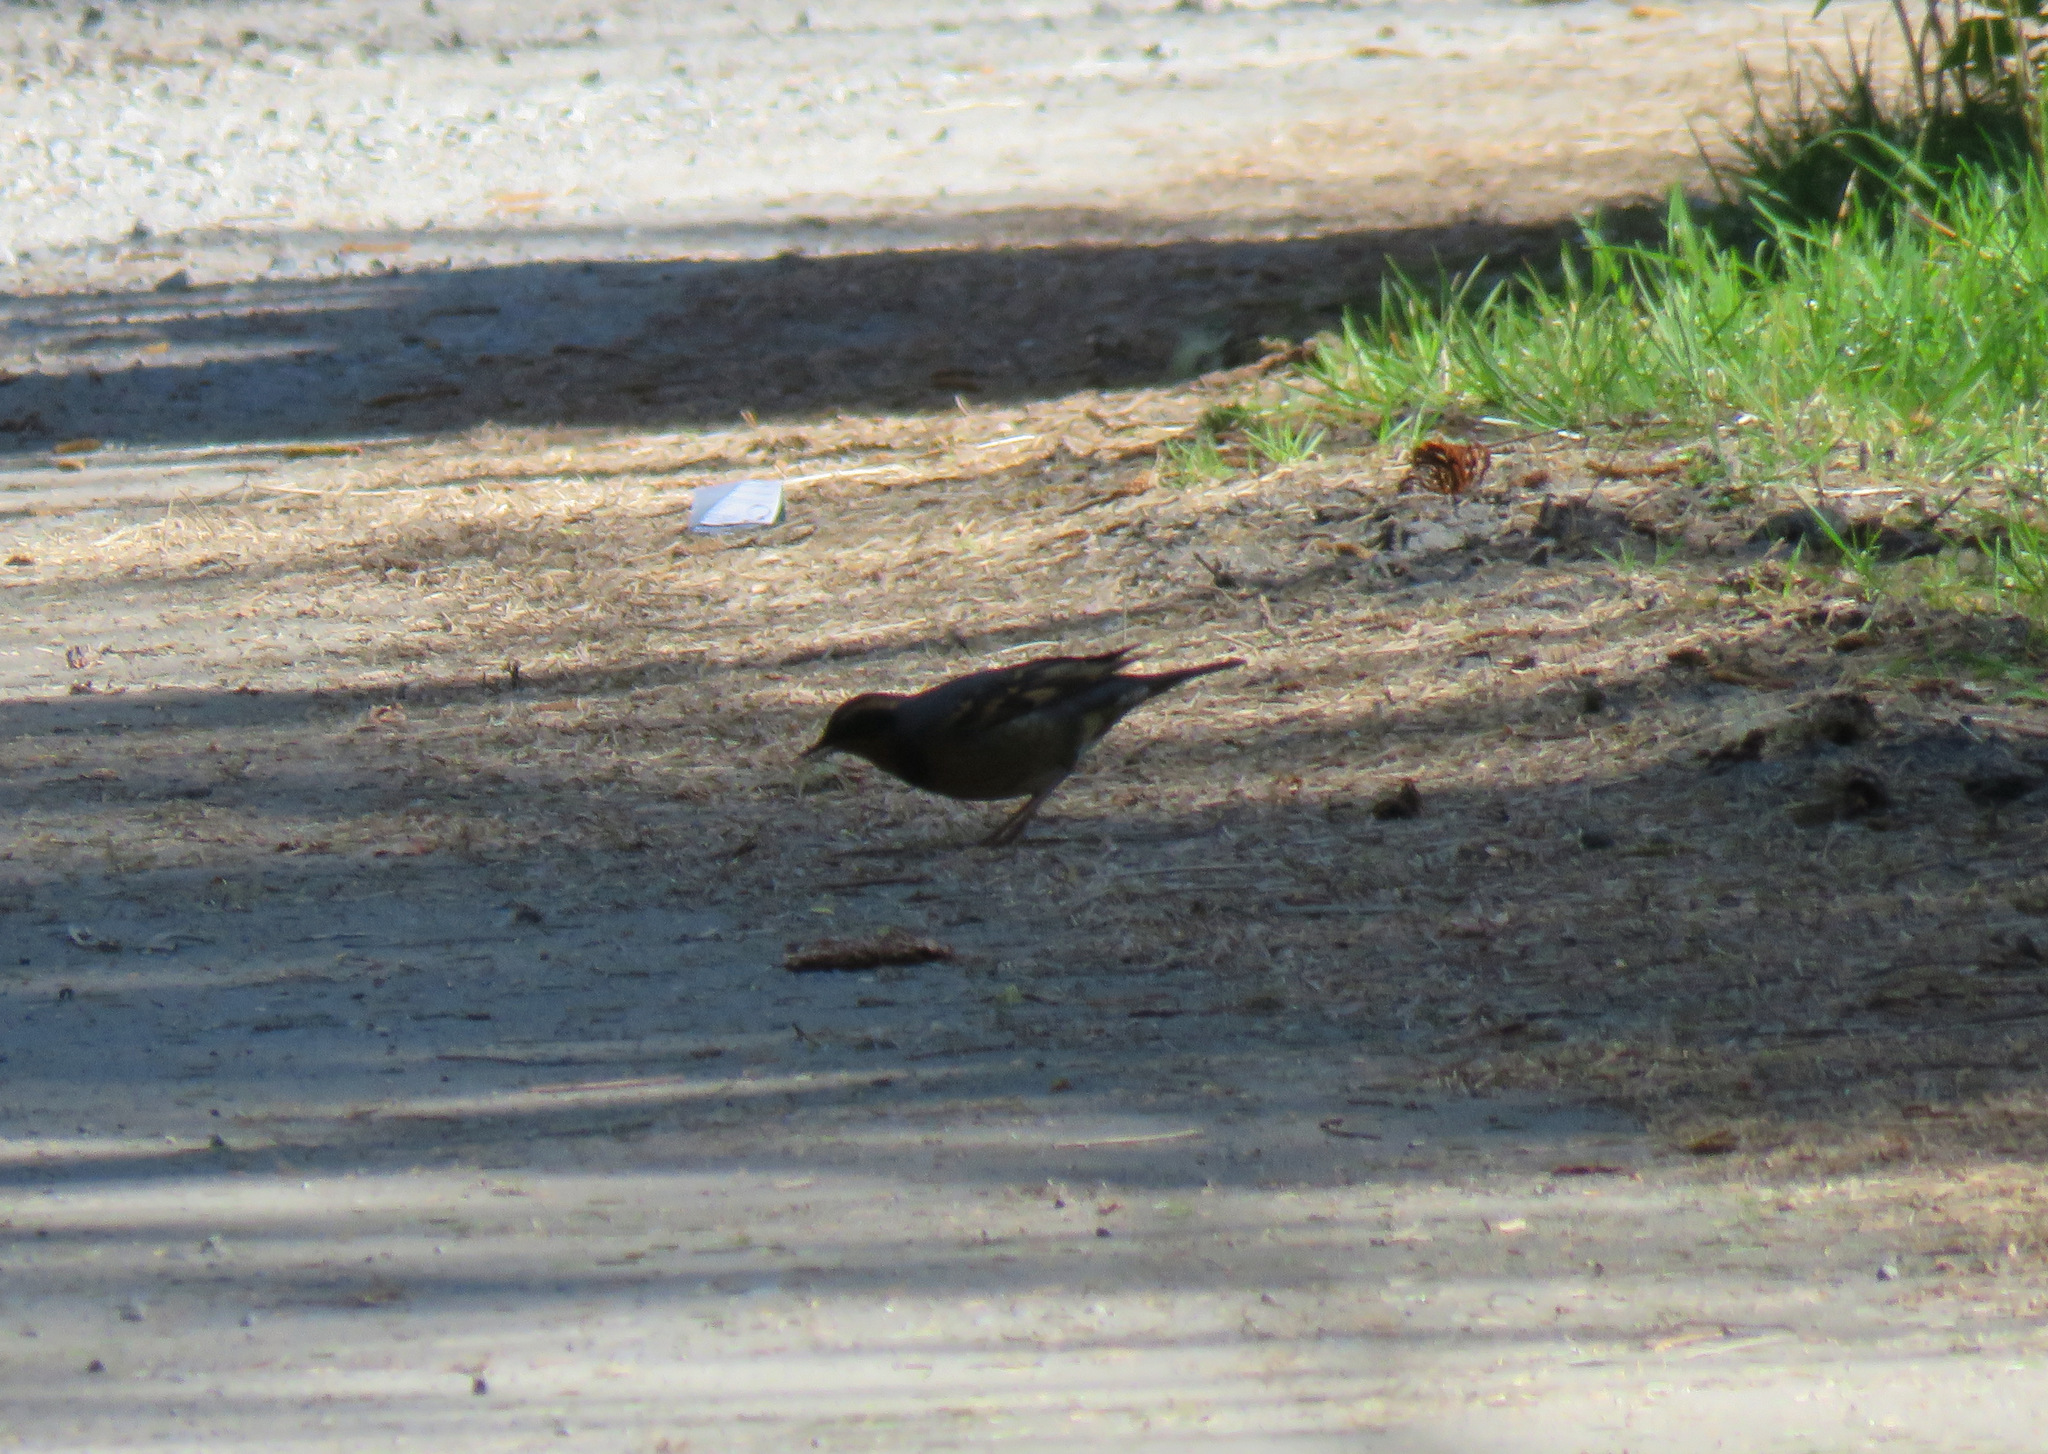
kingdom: Animalia
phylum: Chordata
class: Aves
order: Passeriformes
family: Turdidae
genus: Ixoreus
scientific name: Ixoreus naevius
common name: Varied thrush
